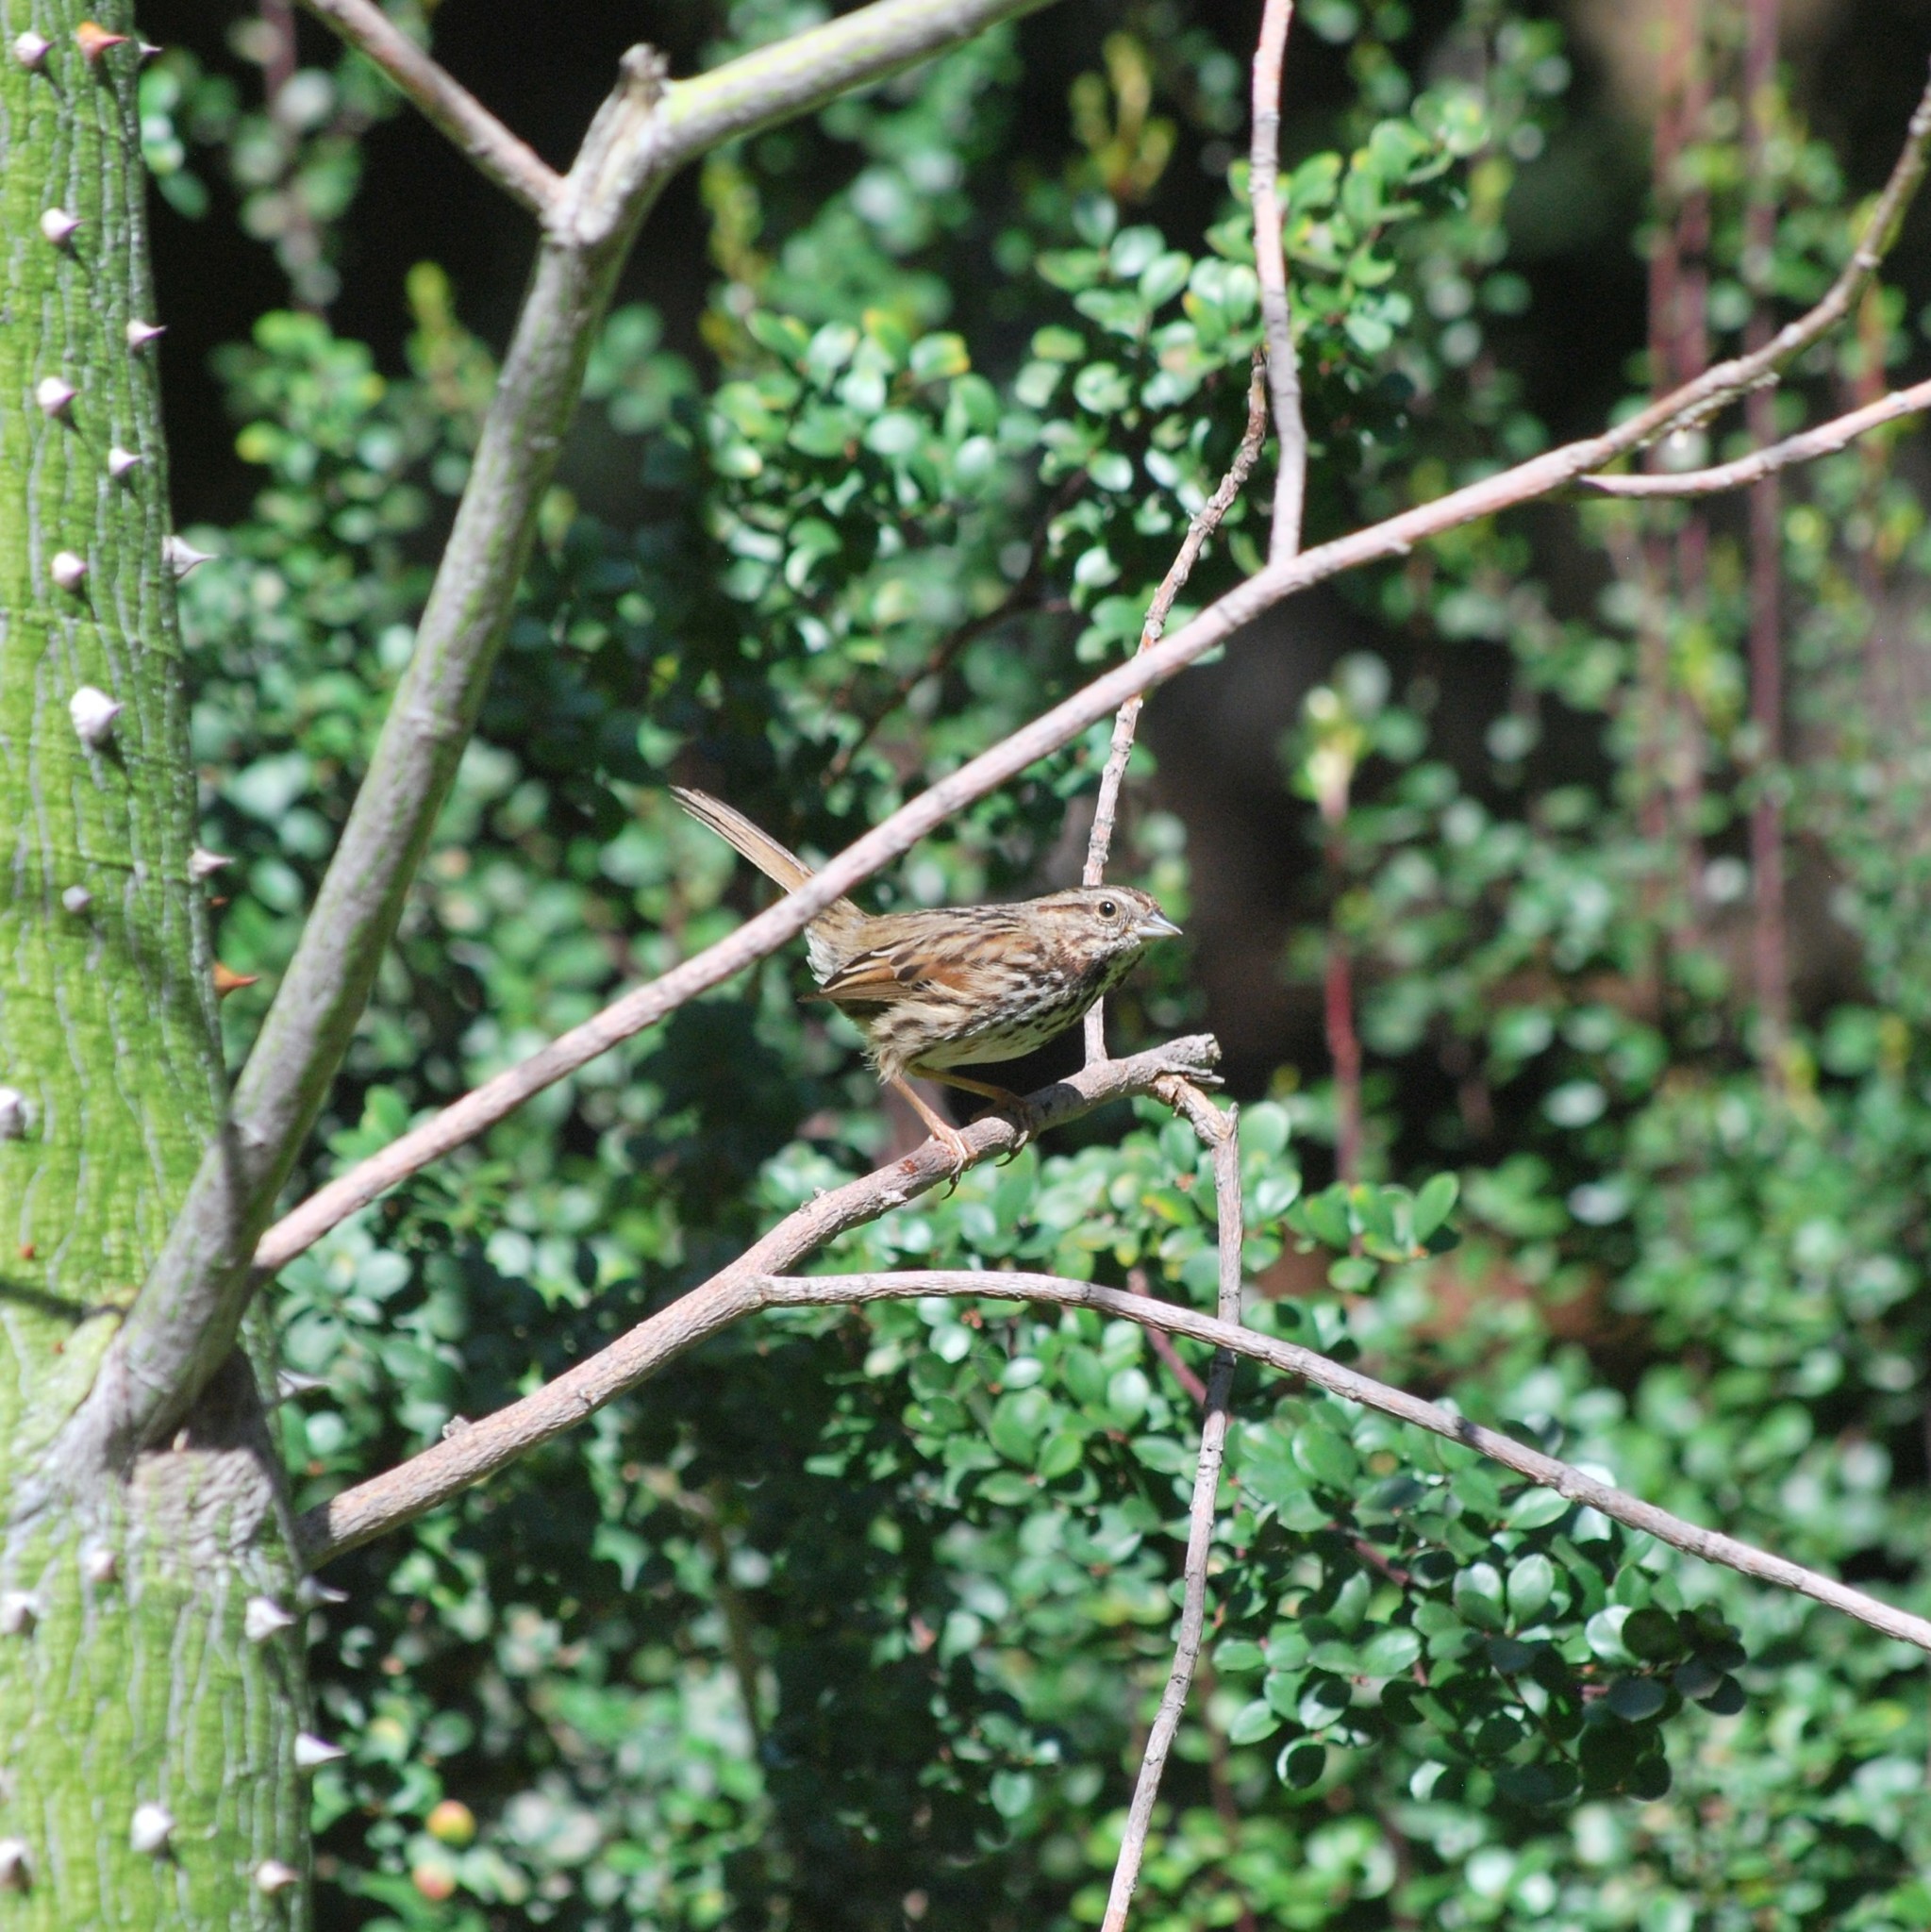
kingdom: Animalia
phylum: Chordata
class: Aves
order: Passeriformes
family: Passerellidae
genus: Melospiza
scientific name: Melospiza melodia
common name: Song sparrow
